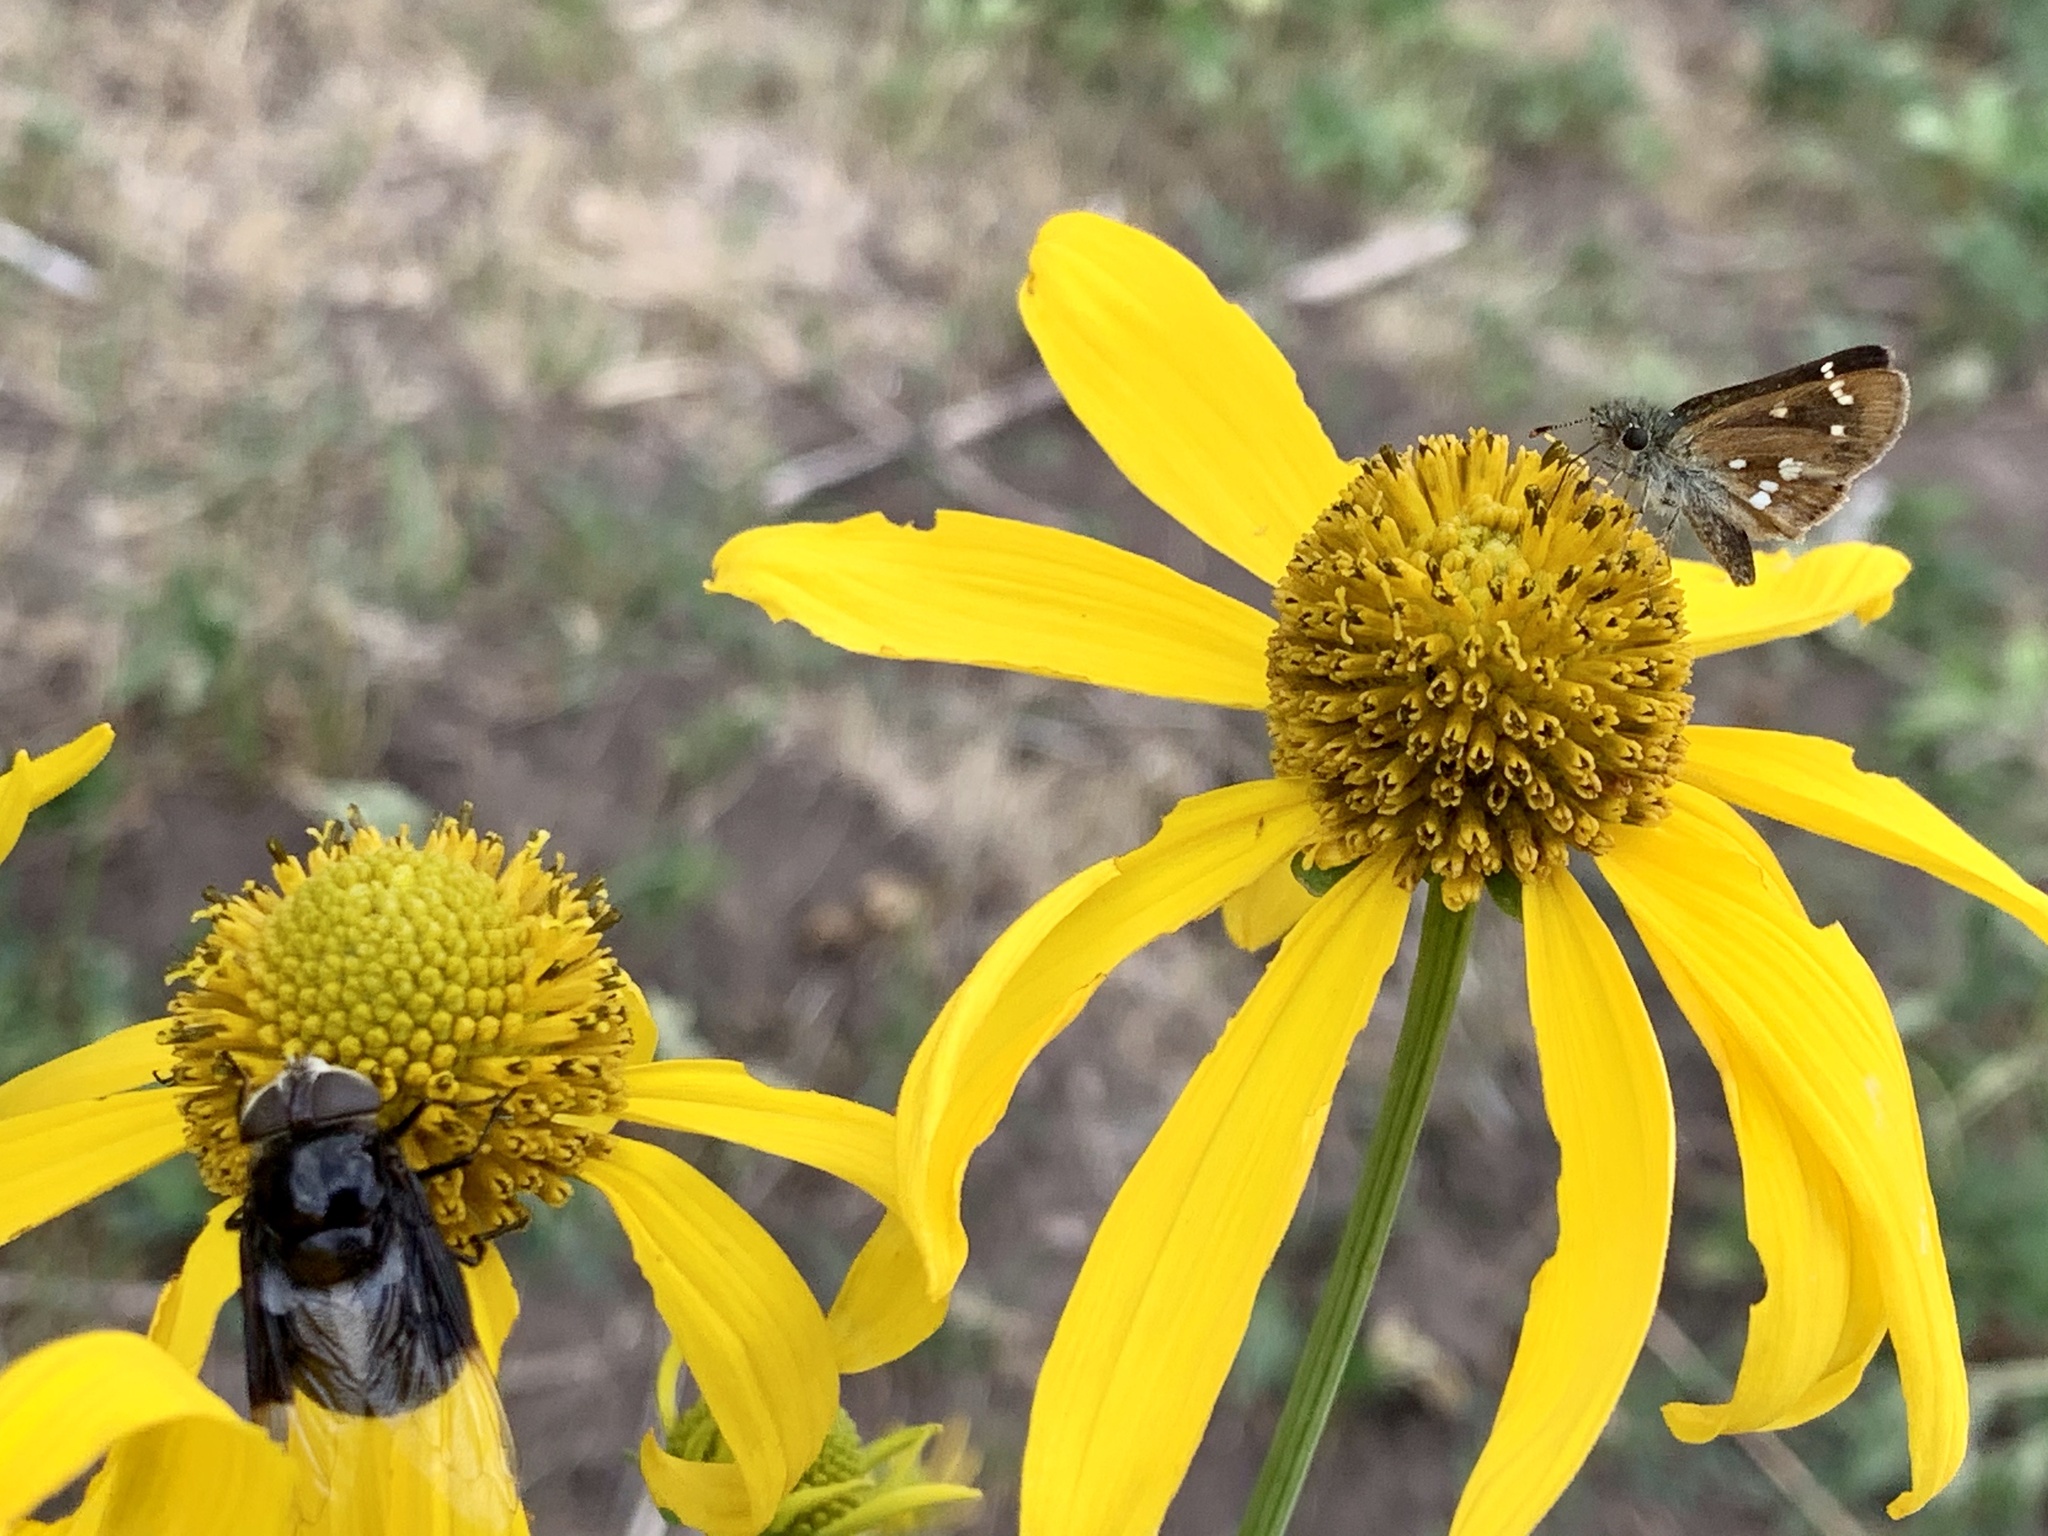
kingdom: Animalia
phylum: Arthropoda
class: Insecta
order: Diptera
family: Syrphidae
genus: Copestylum
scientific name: Copestylum
